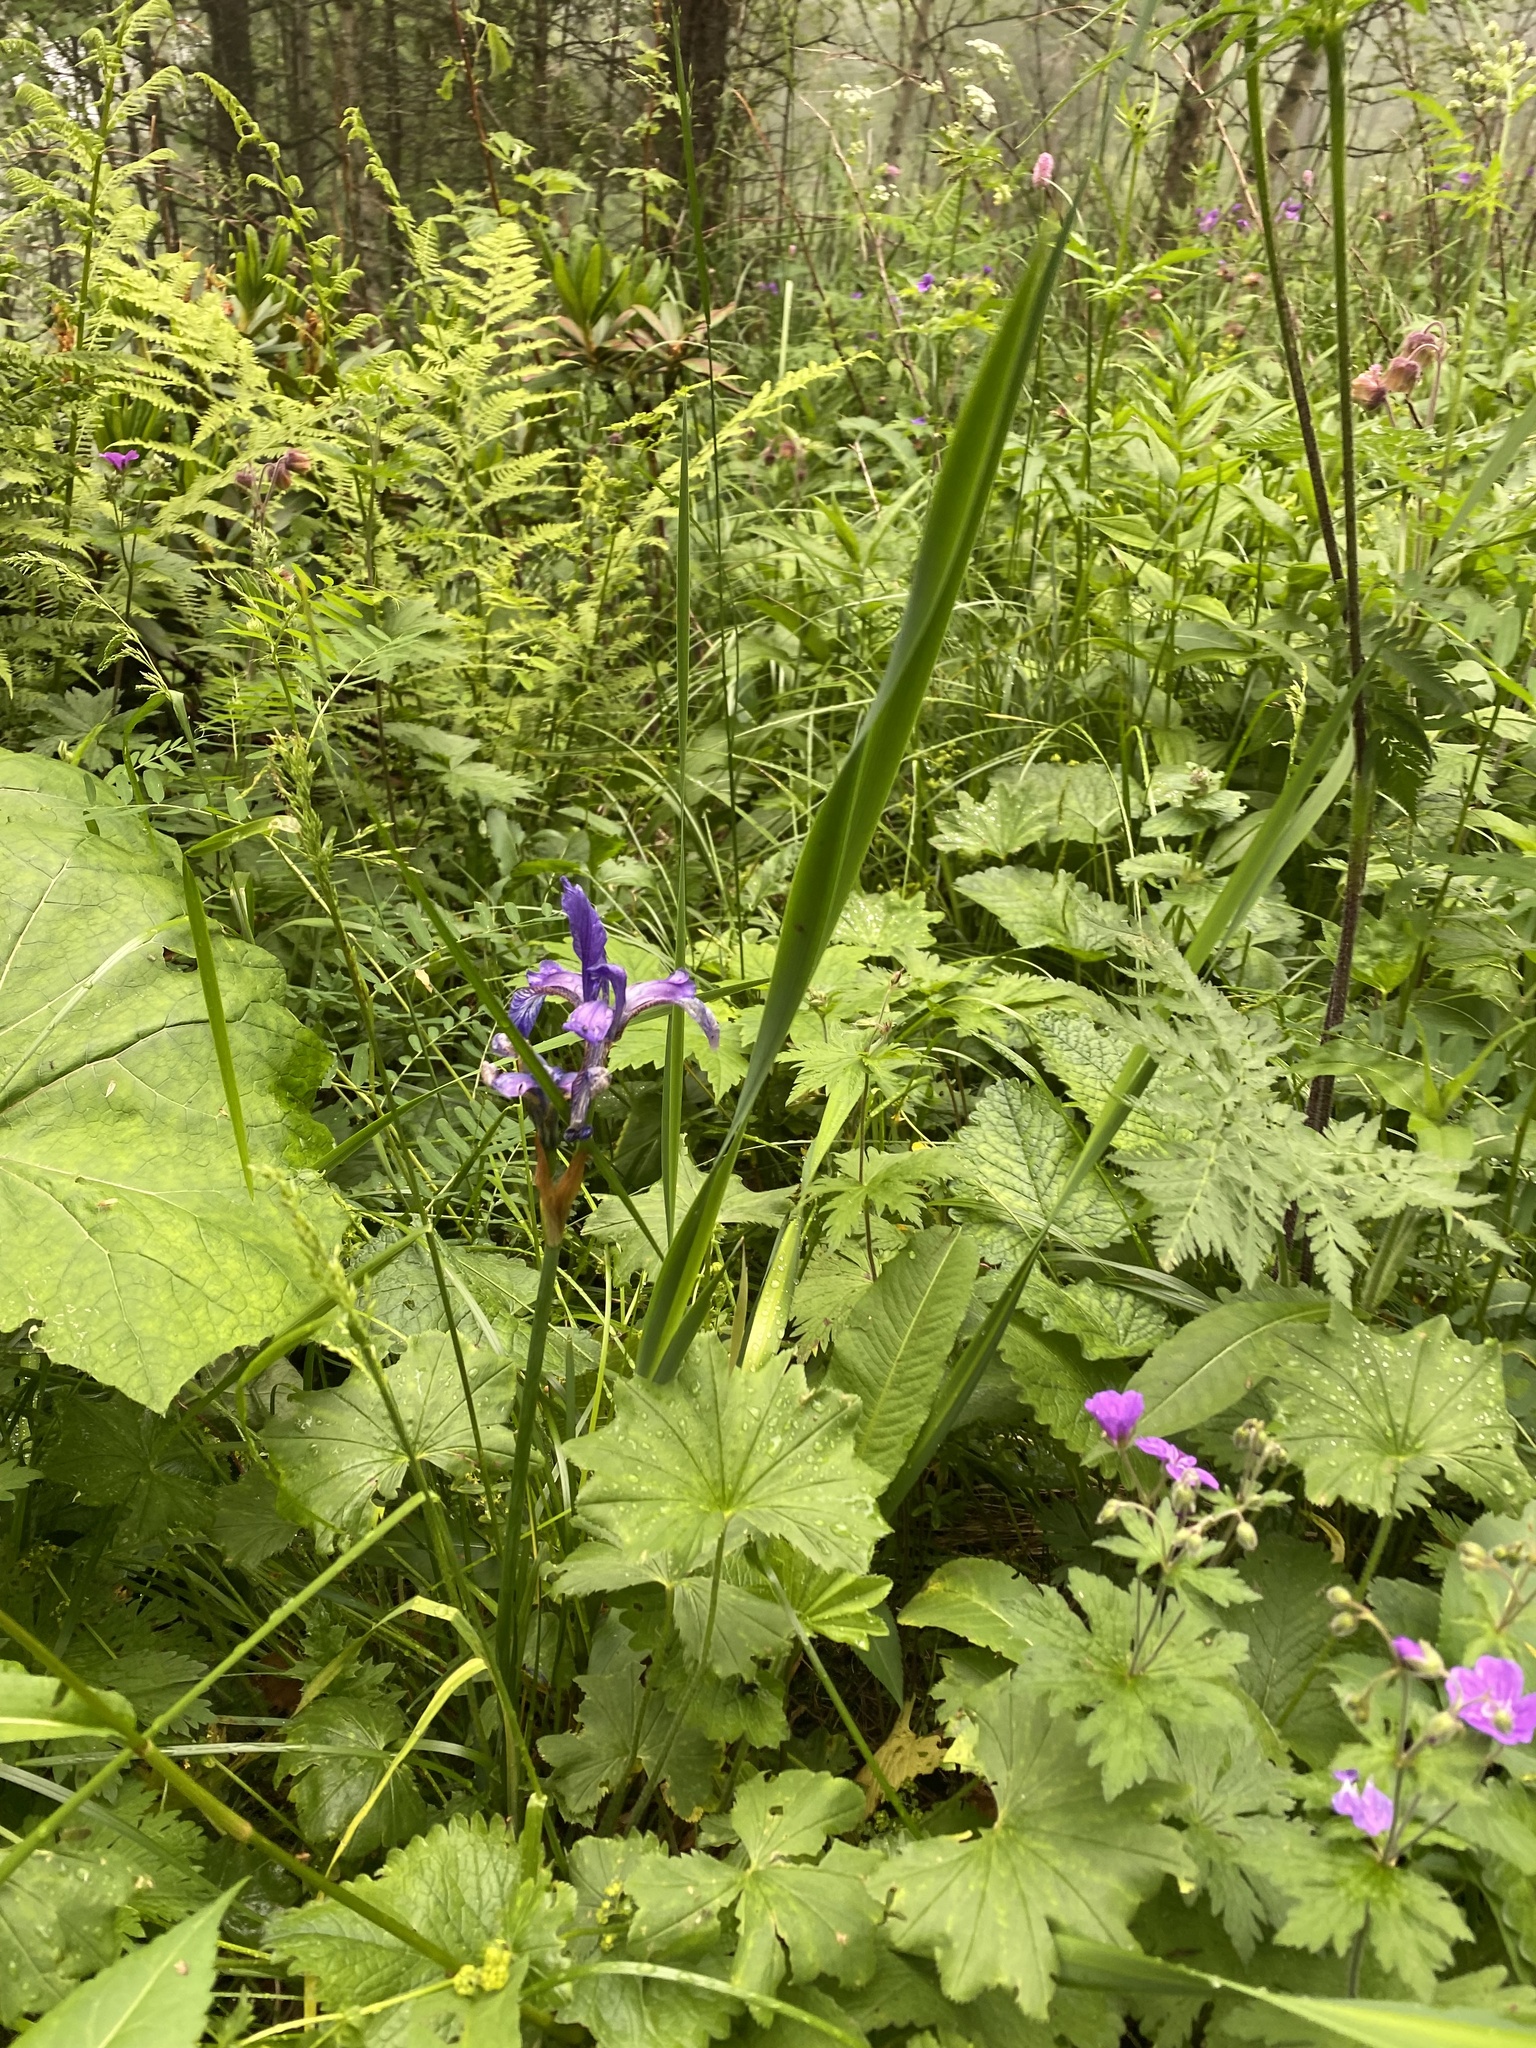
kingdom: Plantae
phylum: Tracheophyta
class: Liliopsida
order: Asparagales
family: Iridaceae
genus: Iris
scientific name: Iris sibirica
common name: Siberian iris
